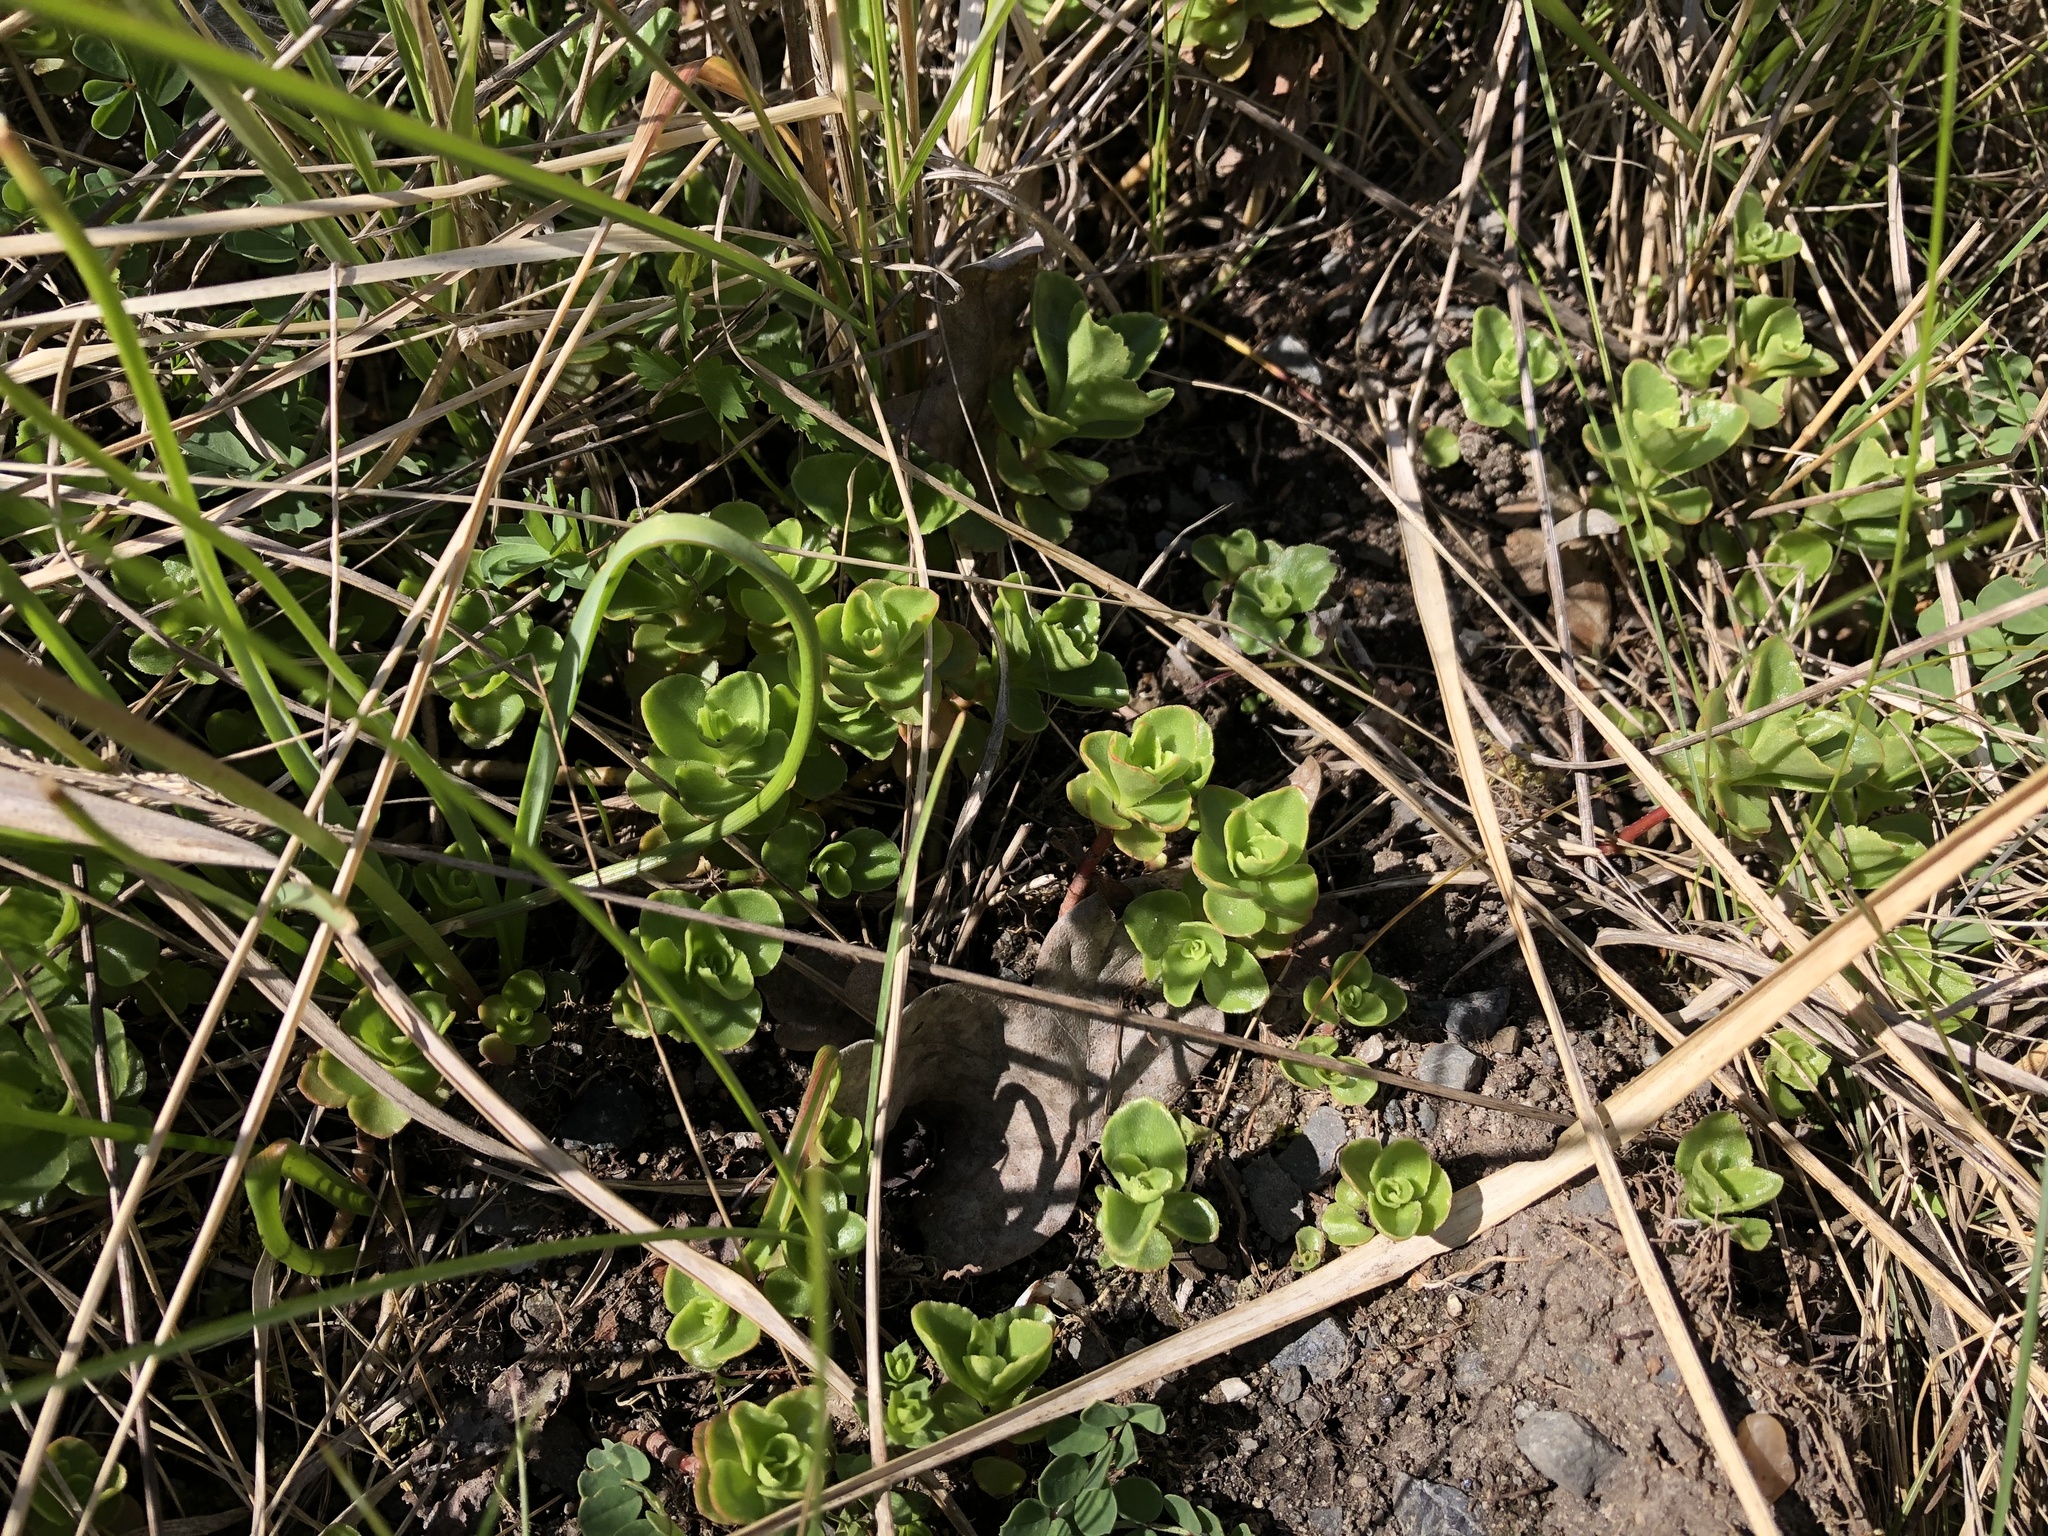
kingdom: Plantae
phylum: Tracheophyta
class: Magnoliopsida
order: Saxifragales
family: Crassulaceae
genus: Phedimus
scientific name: Phedimus spurius
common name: Caucasian stonecrop
